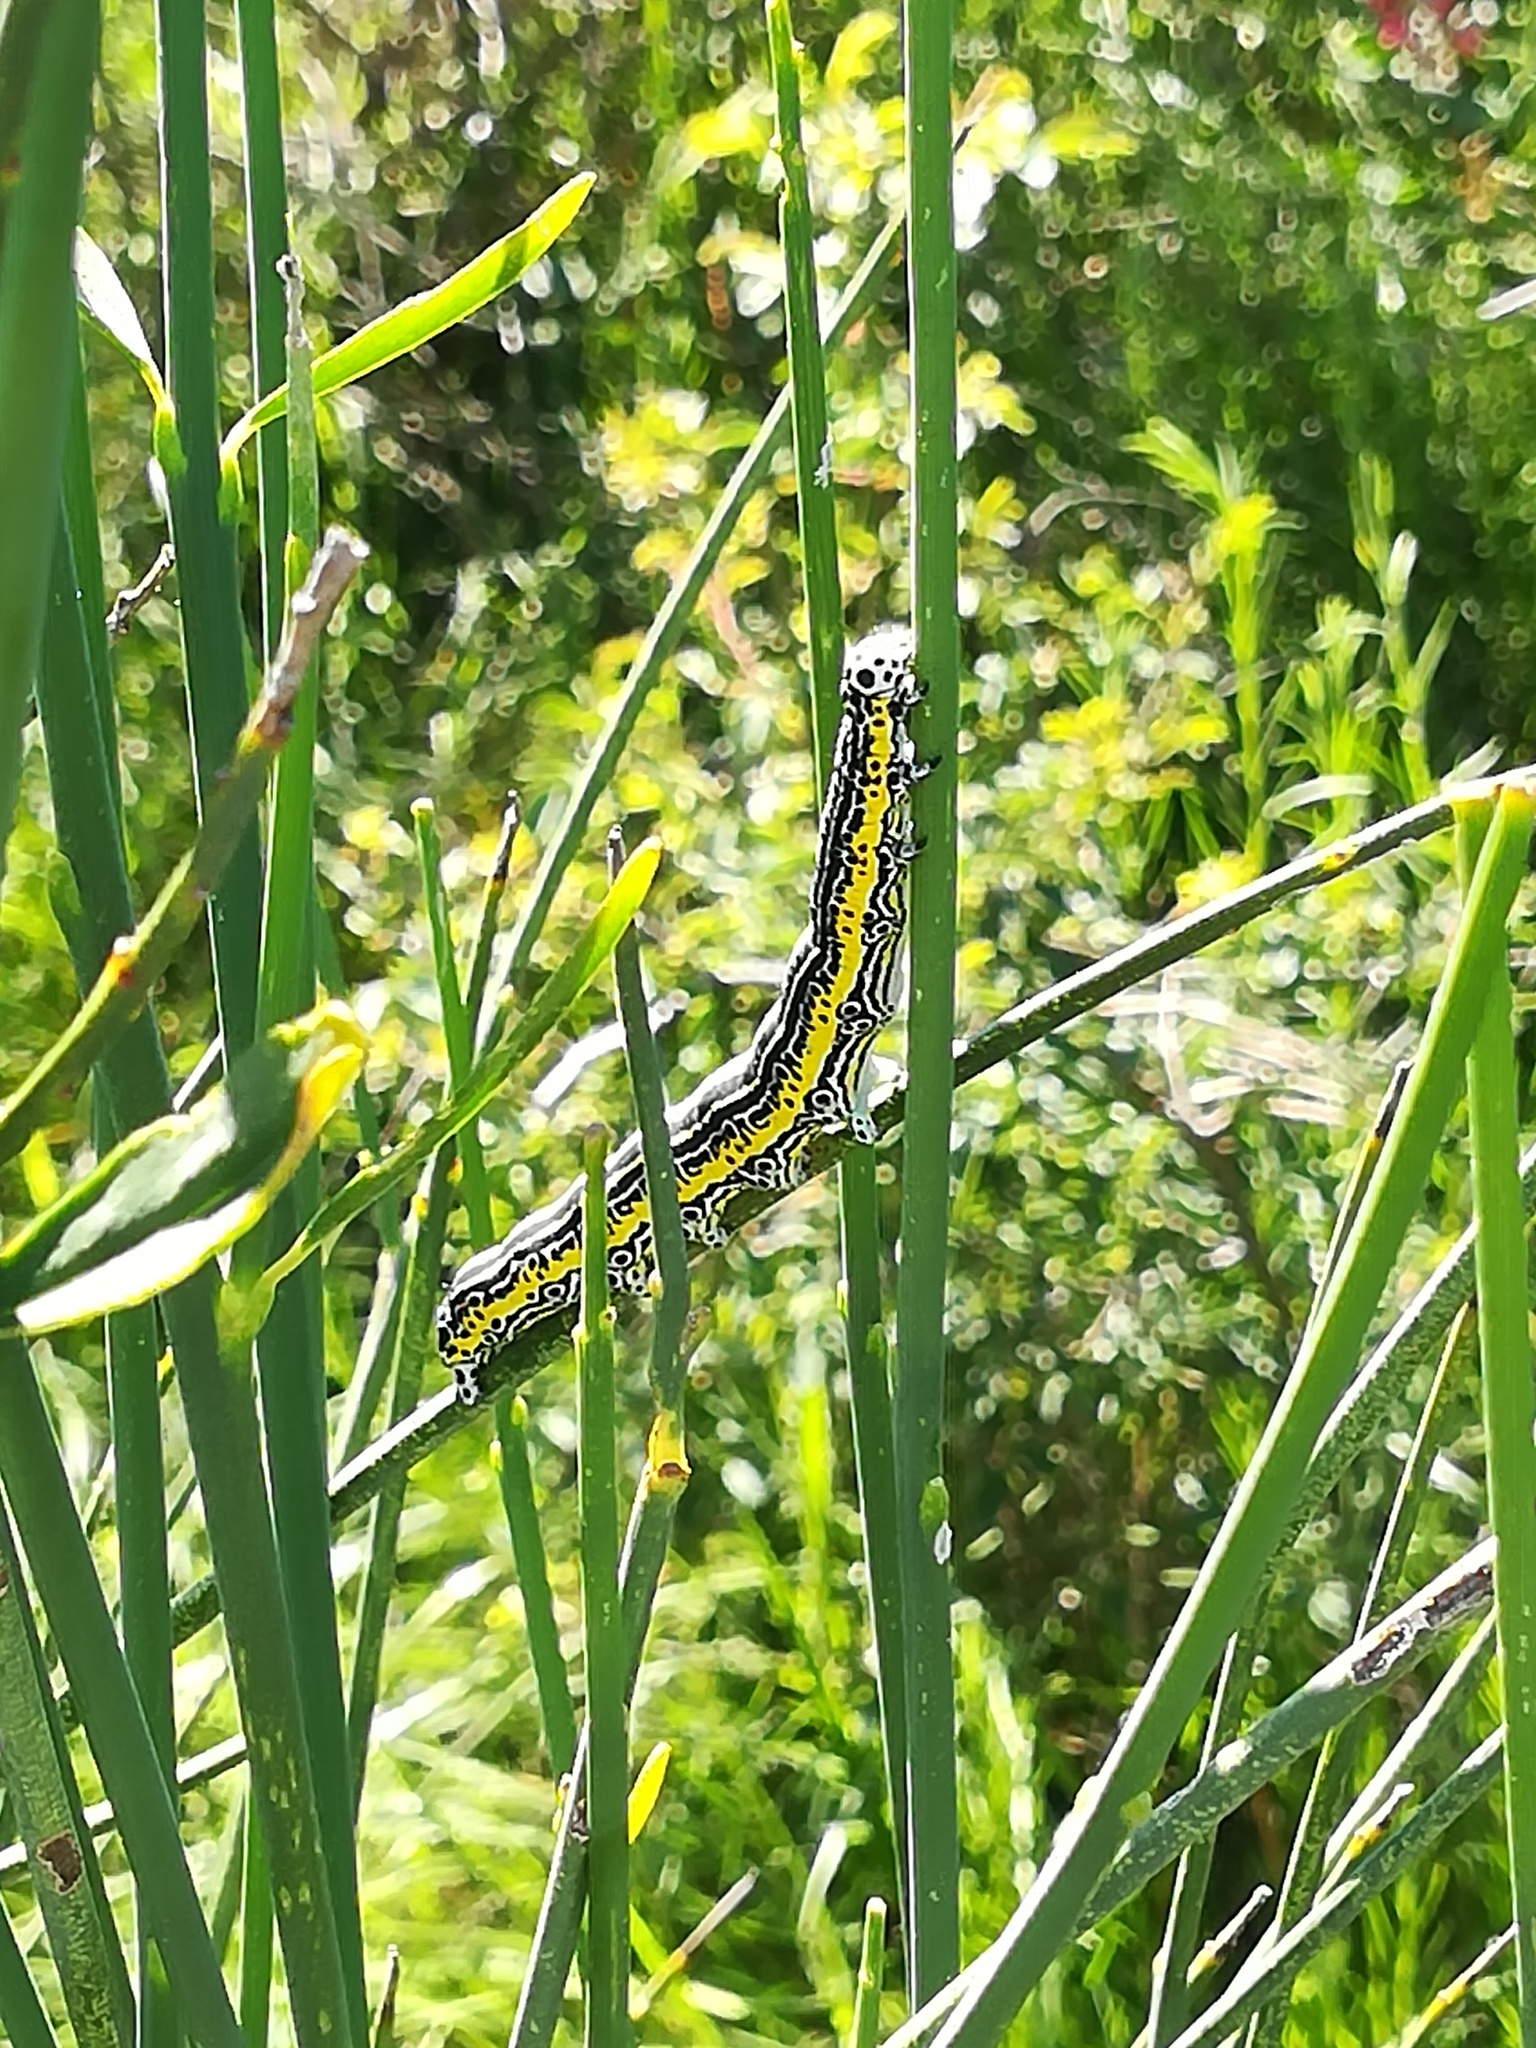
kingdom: Animalia
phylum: Arthropoda
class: Insecta
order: Lepidoptera
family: Erebidae
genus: Apopestes
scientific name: Apopestes spectrum
